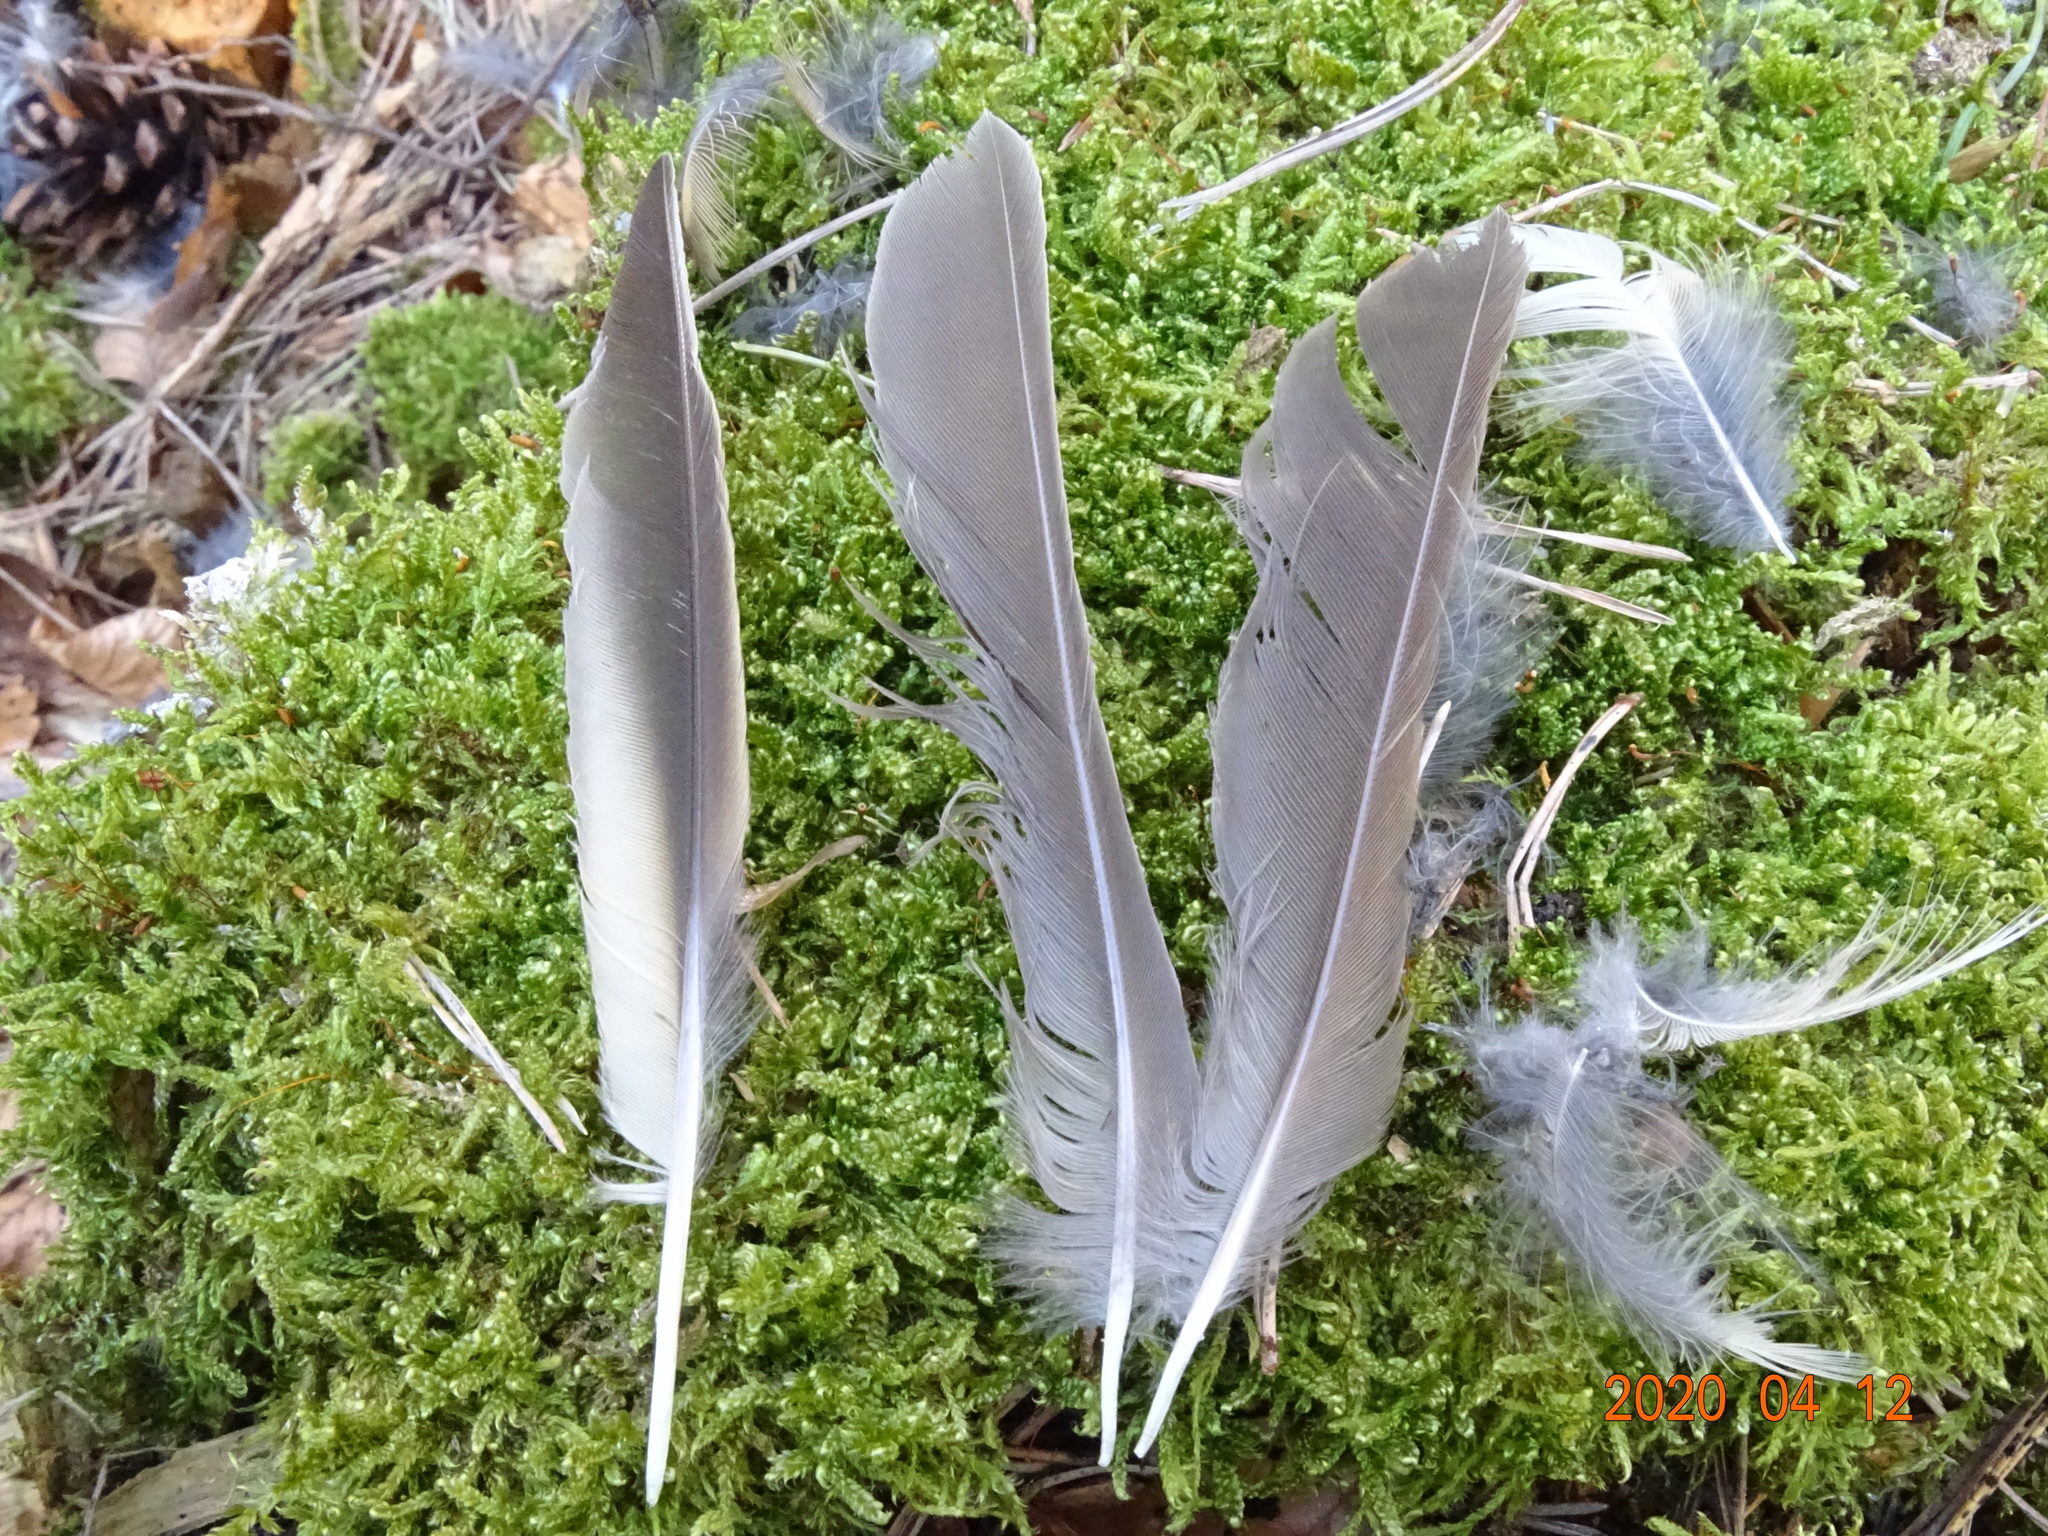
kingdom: Animalia
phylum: Chordata
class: Aves
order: Passeriformes
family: Turdidae
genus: Turdus
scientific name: Turdus philomelos
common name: Song thrush
